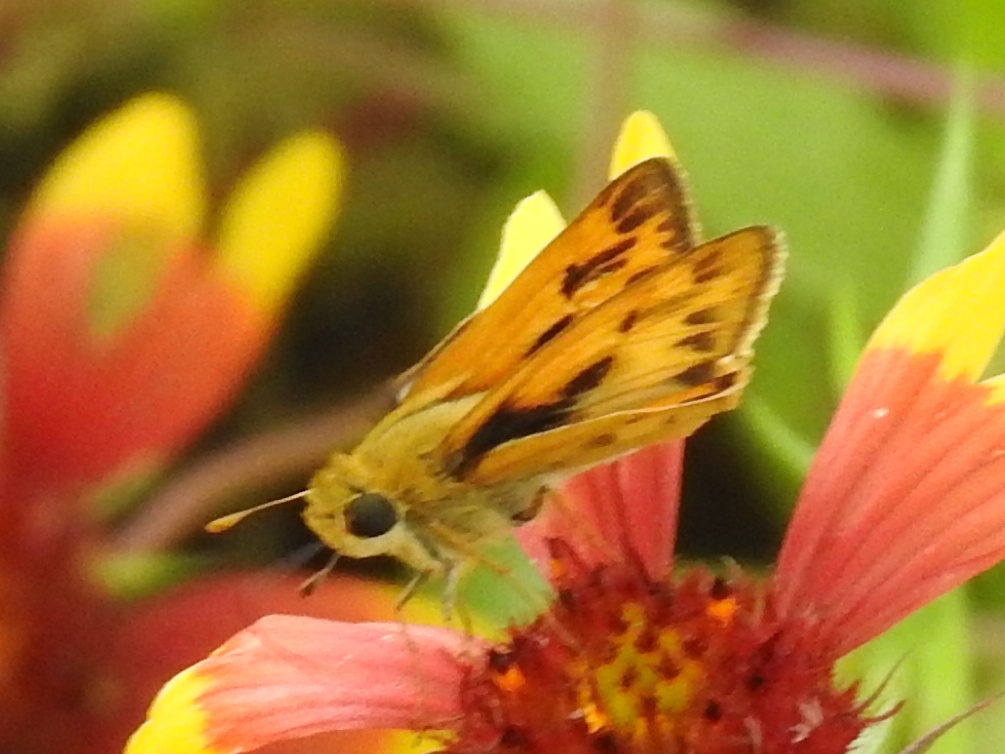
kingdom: Animalia
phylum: Arthropoda
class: Insecta
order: Lepidoptera
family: Hesperiidae
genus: Hylephila
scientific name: Hylephila phyleus
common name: Fiery skipper
